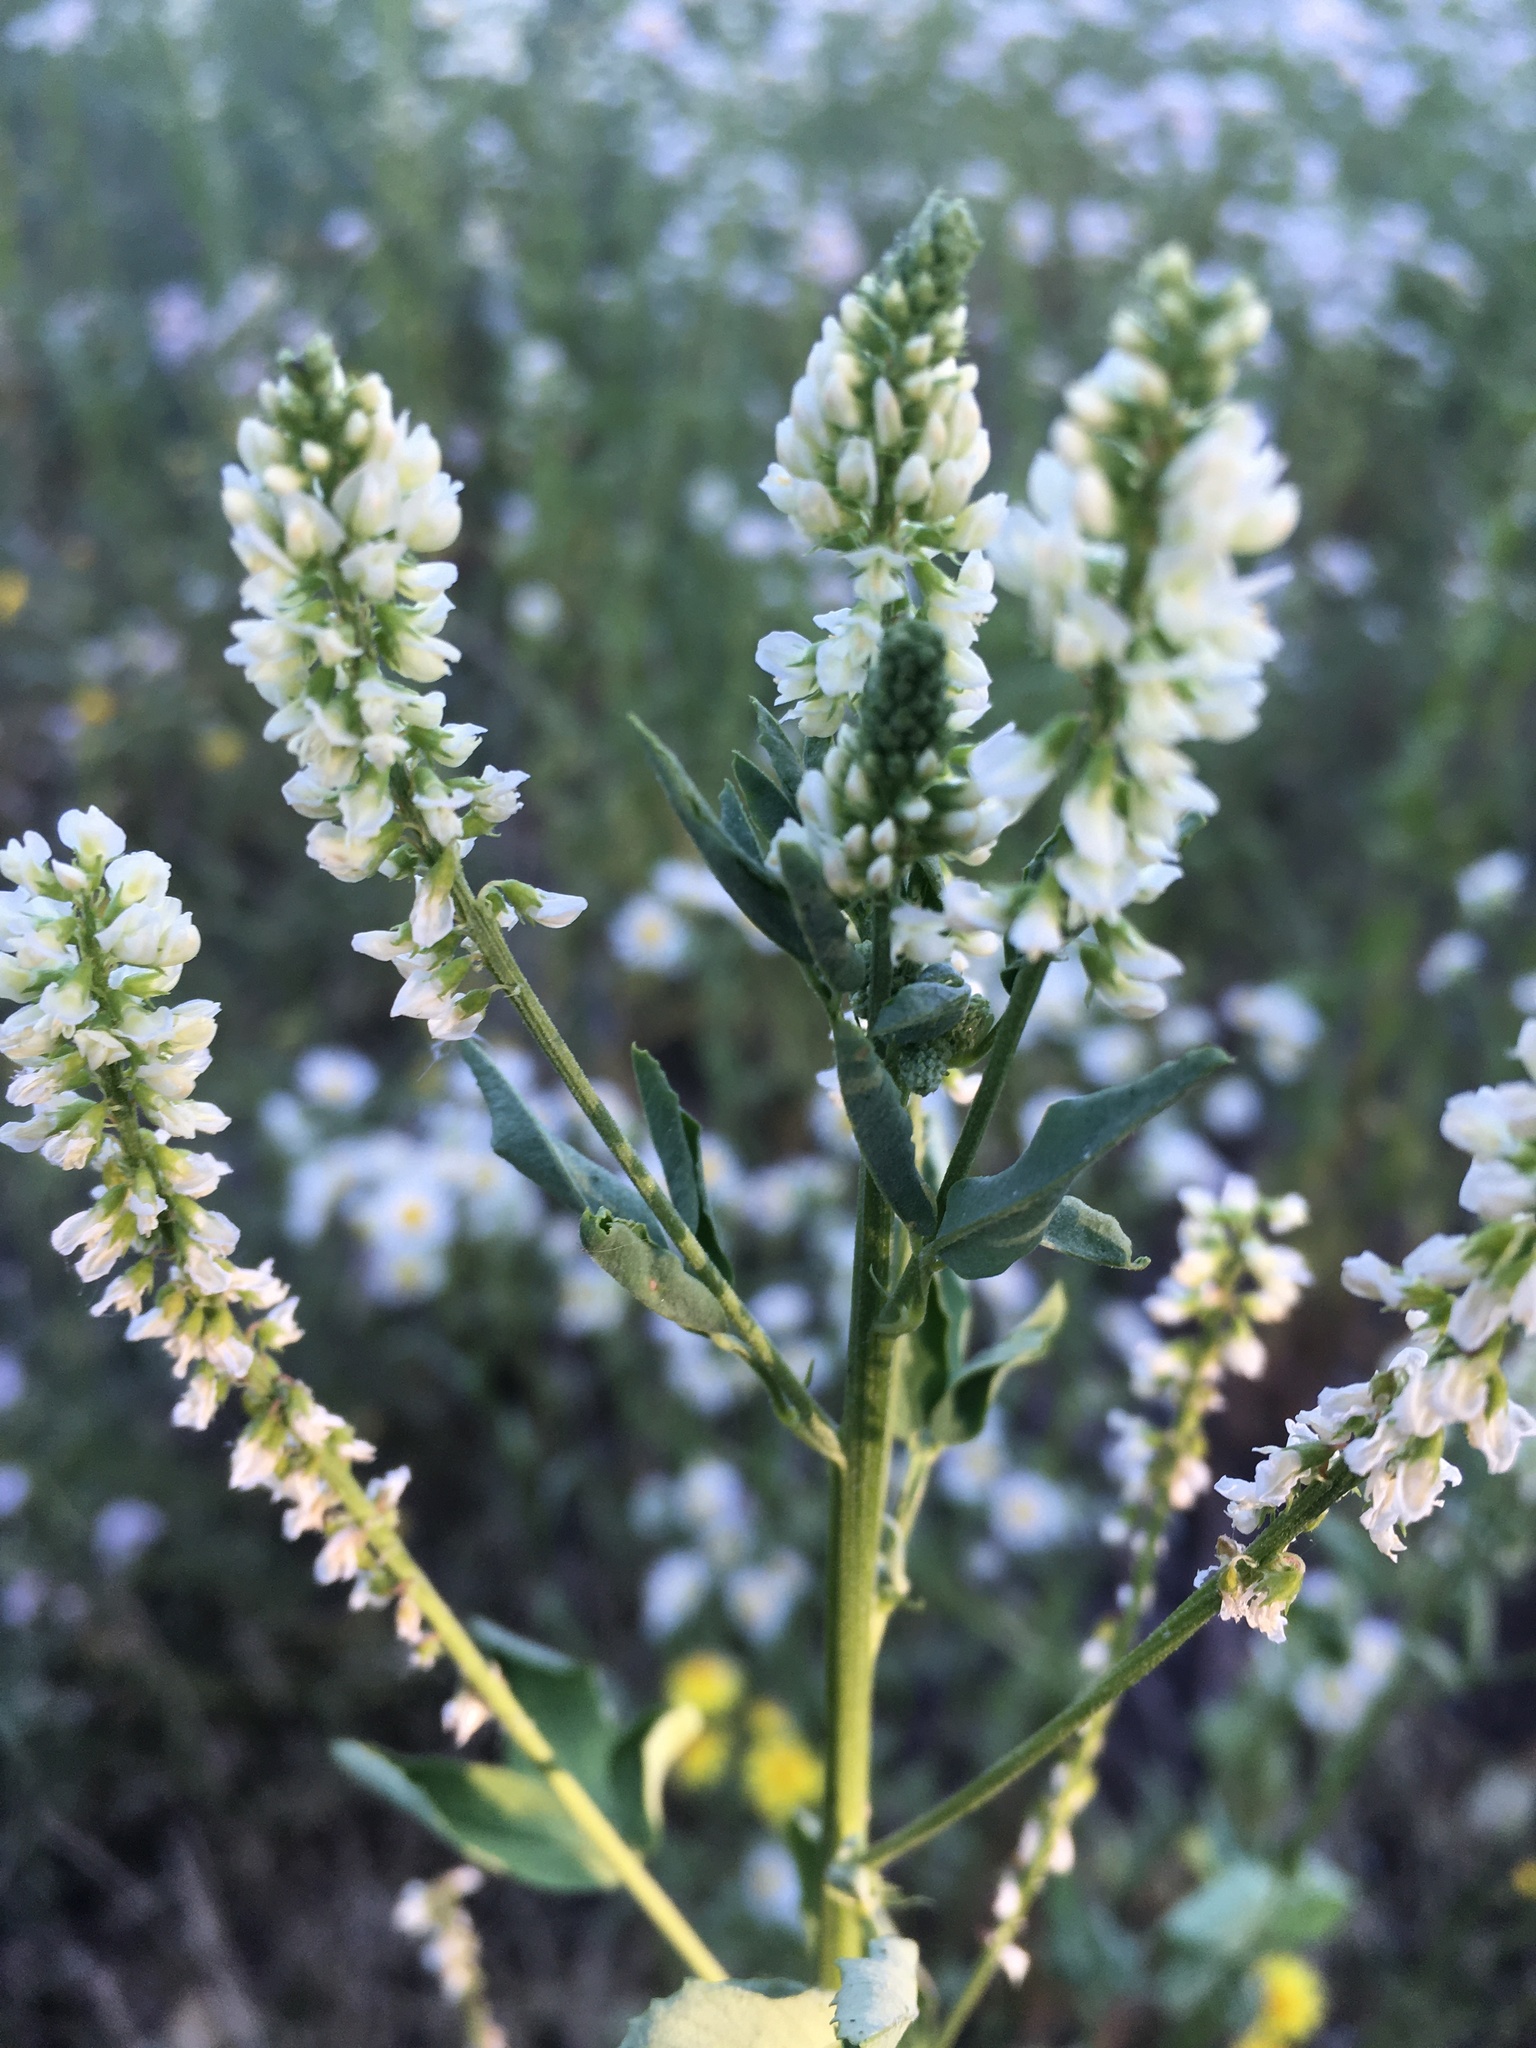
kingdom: Plantae
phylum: Tracheophyta
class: Magnoliopsida
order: Fabales
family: Fabaceae
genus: Melilotus
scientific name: Melilotus albus
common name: White melilot
